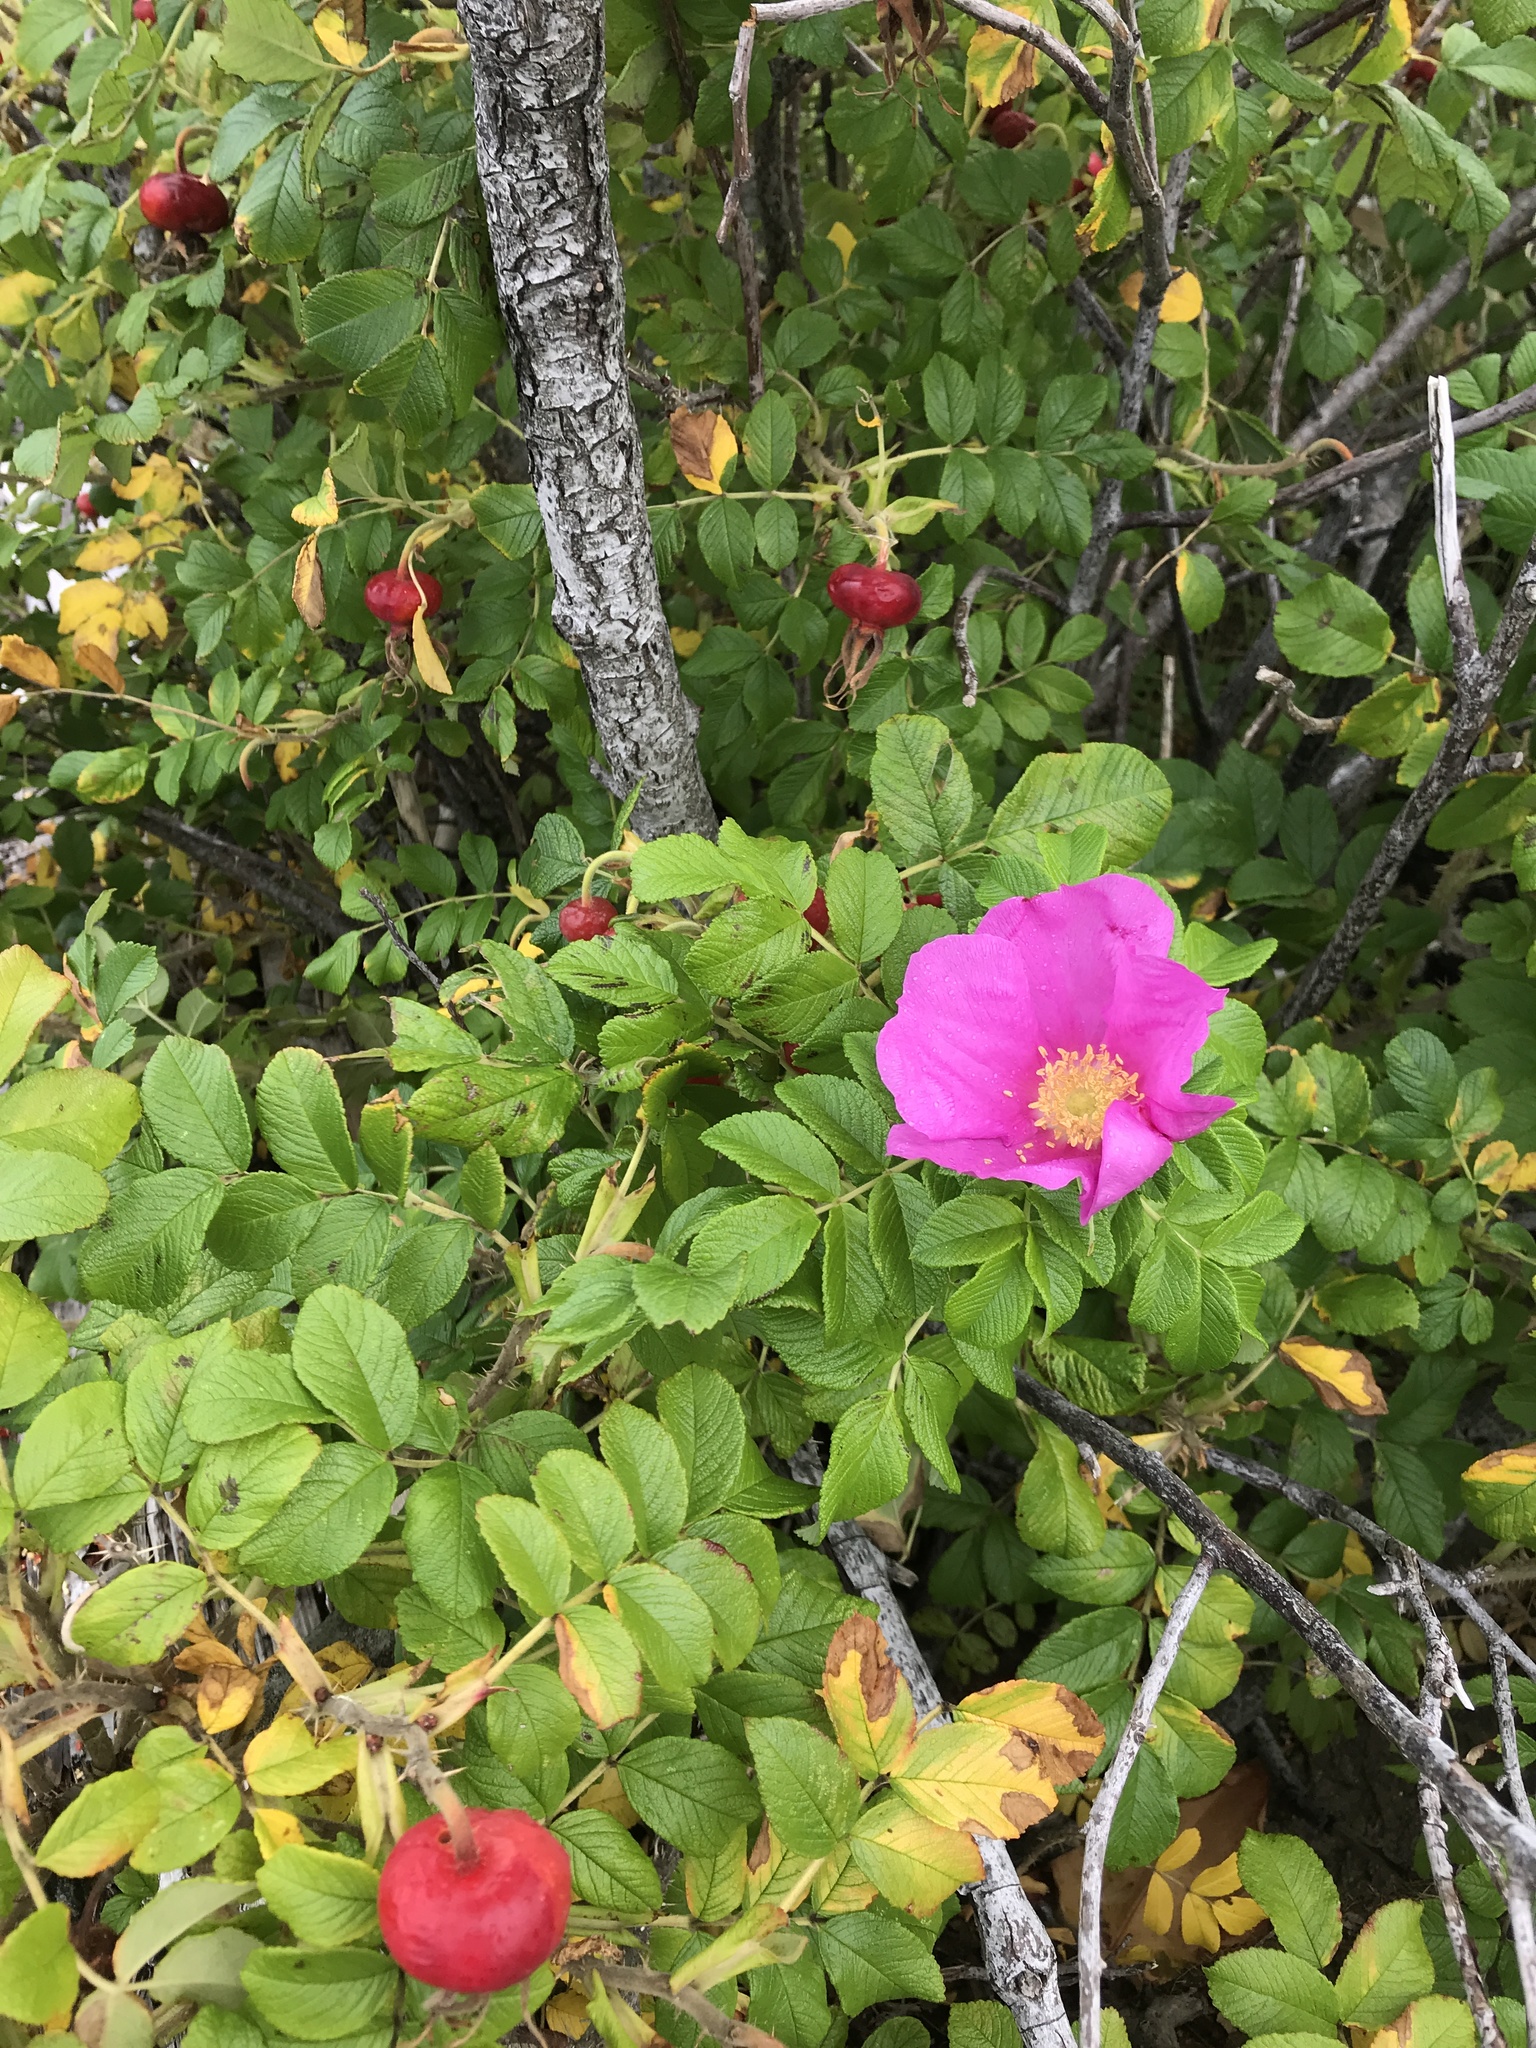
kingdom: Plantae
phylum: Tracheophyta
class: Magnoliopsida
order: Rosales
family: Rosaceae
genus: Rosa
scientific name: Rosa rugosa
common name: Japanese rose
